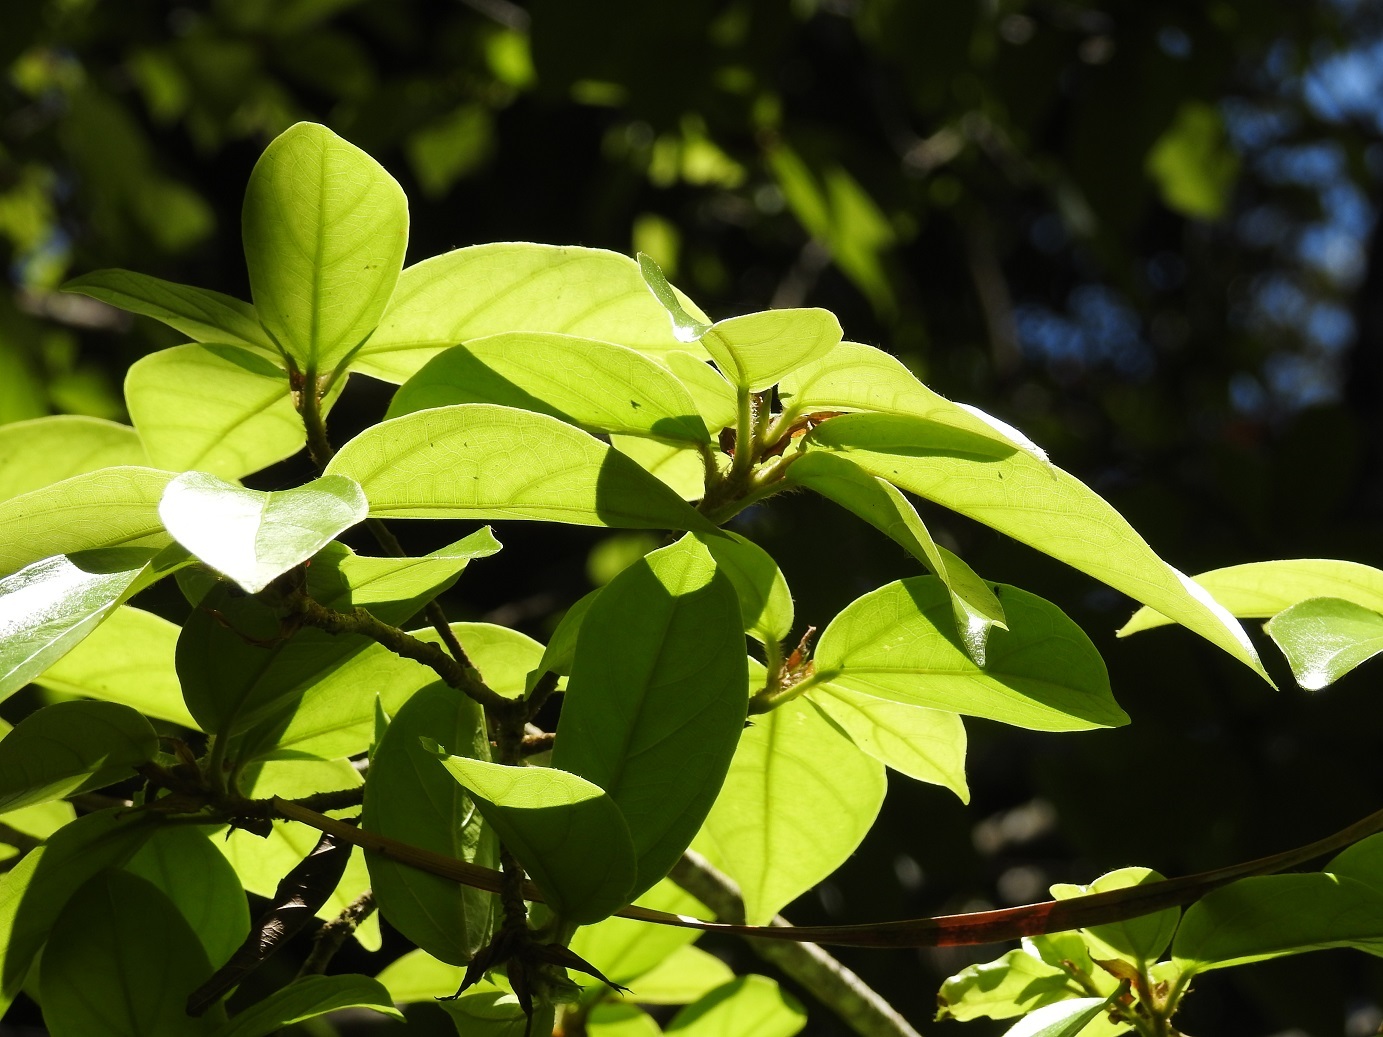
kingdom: Plantae
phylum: Tracheophyta
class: Magnoliopsida
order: Rosales
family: Moraceae
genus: Ficus
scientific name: Ficus colubrinae
